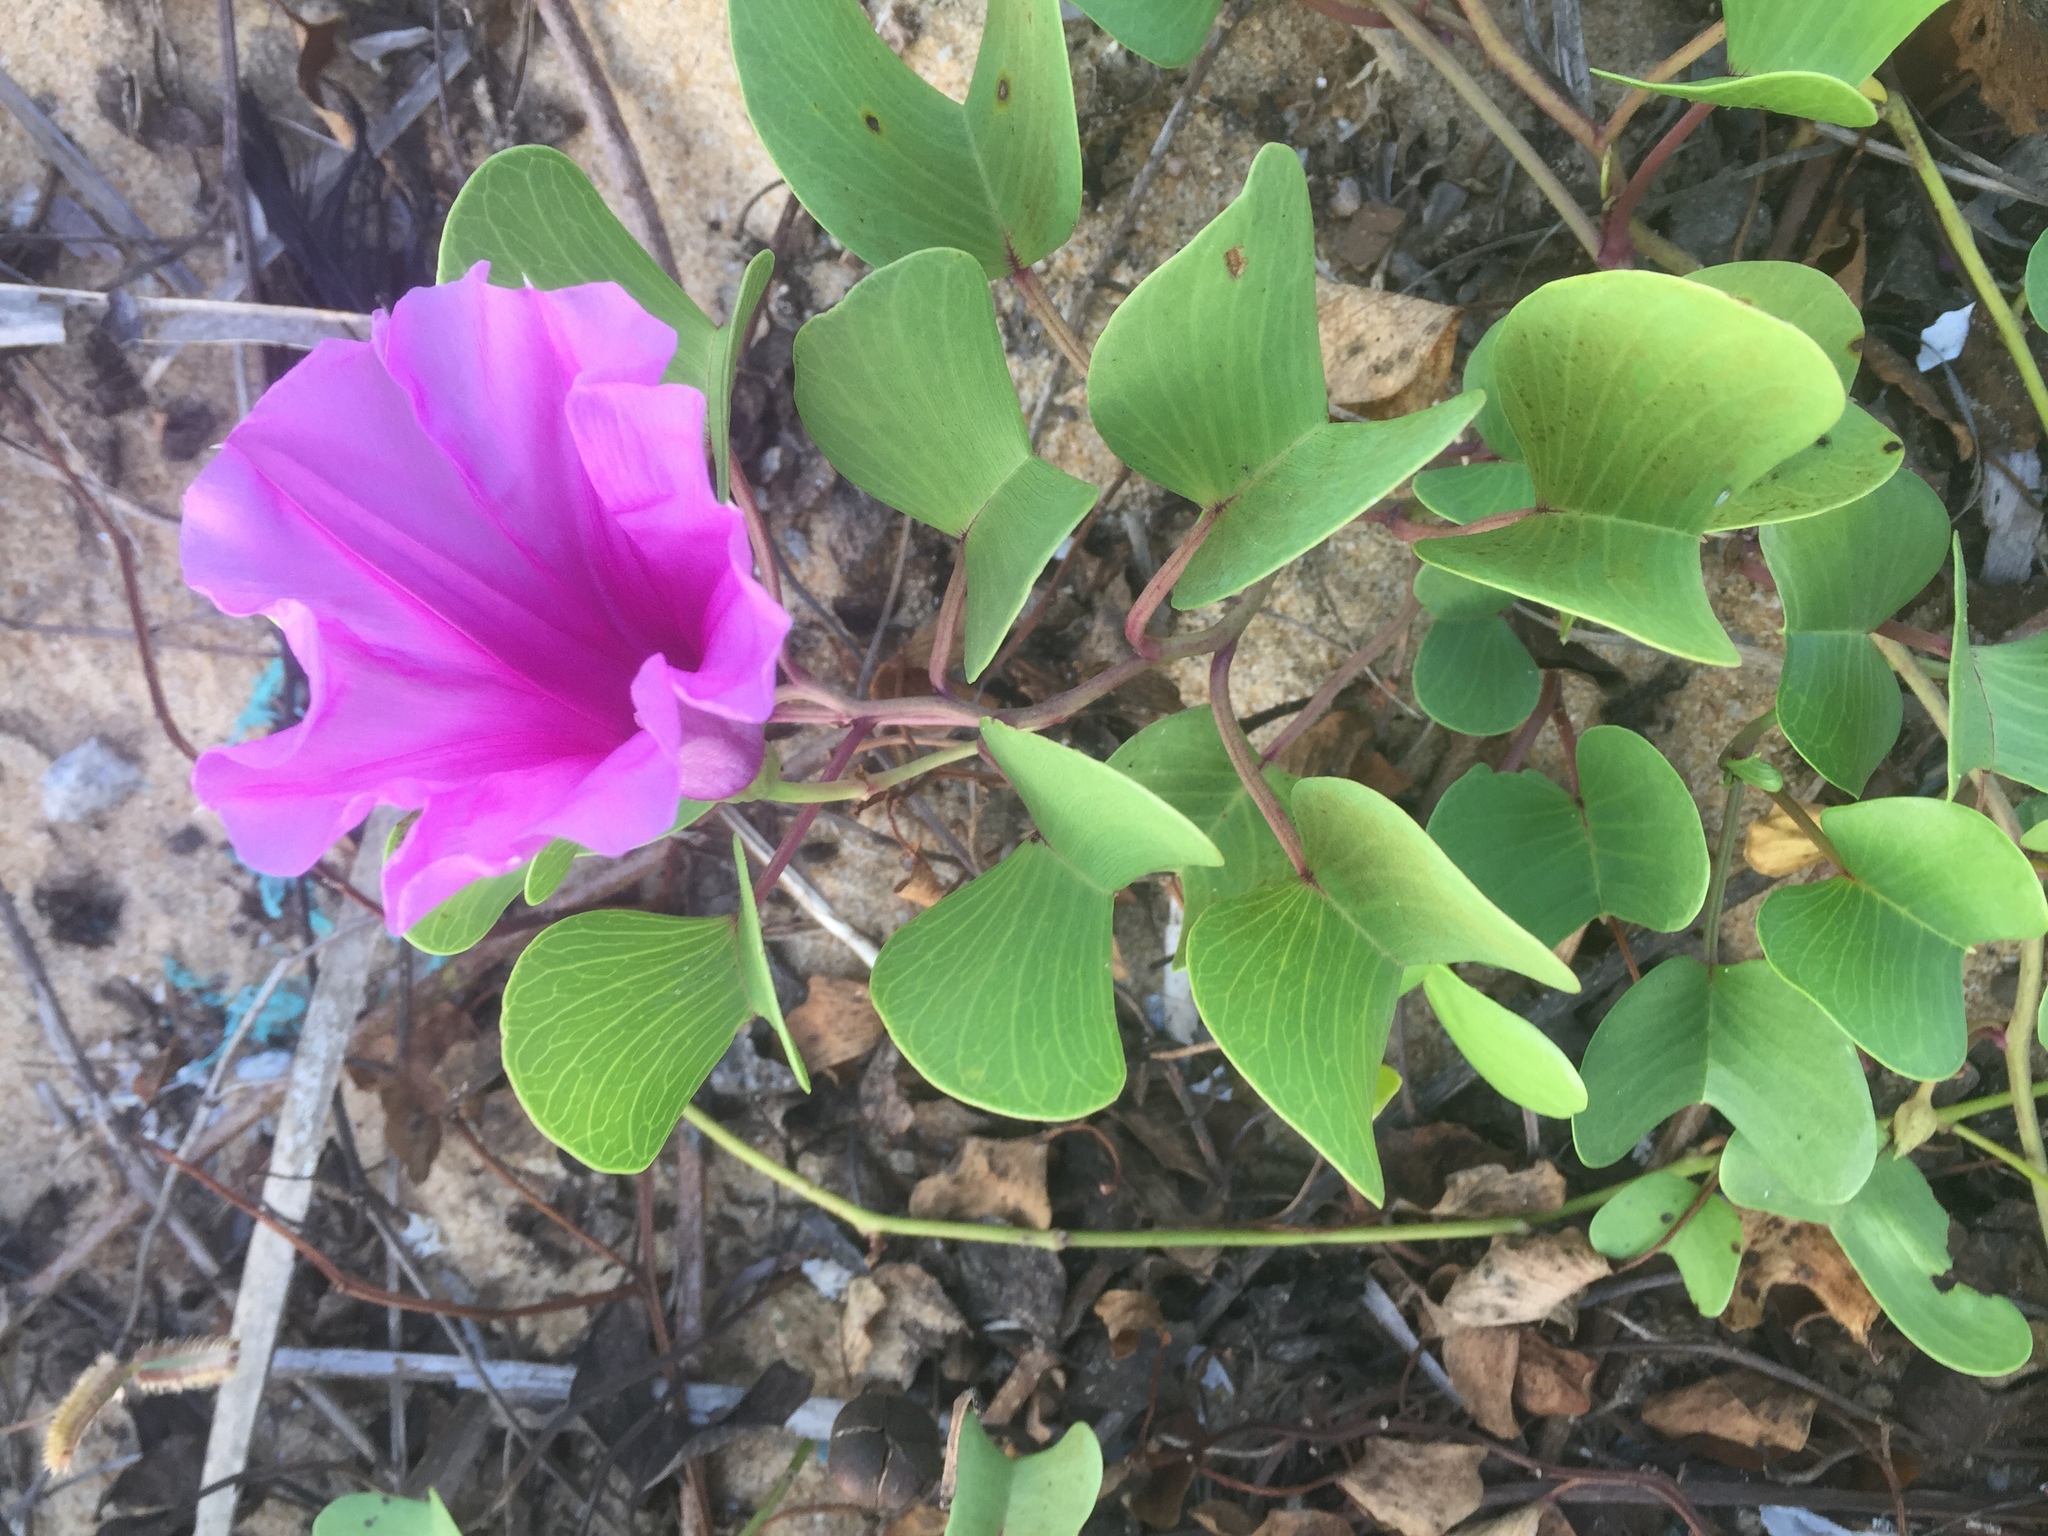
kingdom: Plantae
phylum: Tracheophyta
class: Magnoliopsida
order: Solanales
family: Convolvulaceae
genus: Ipomoea
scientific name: Ipomoea pes-caprae
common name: Beach morning glory
